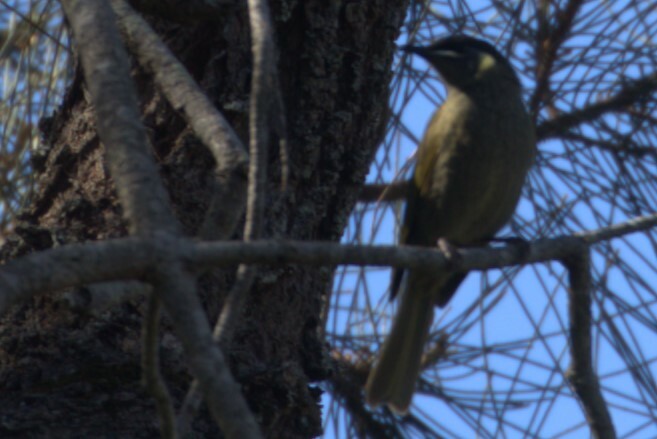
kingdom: Animalia
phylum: Chordata
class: Aves
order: Passeriformes
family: Meliphagidae
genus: Meliphaga
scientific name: Meliphaga lewinii
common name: Lewin's honeyeater
